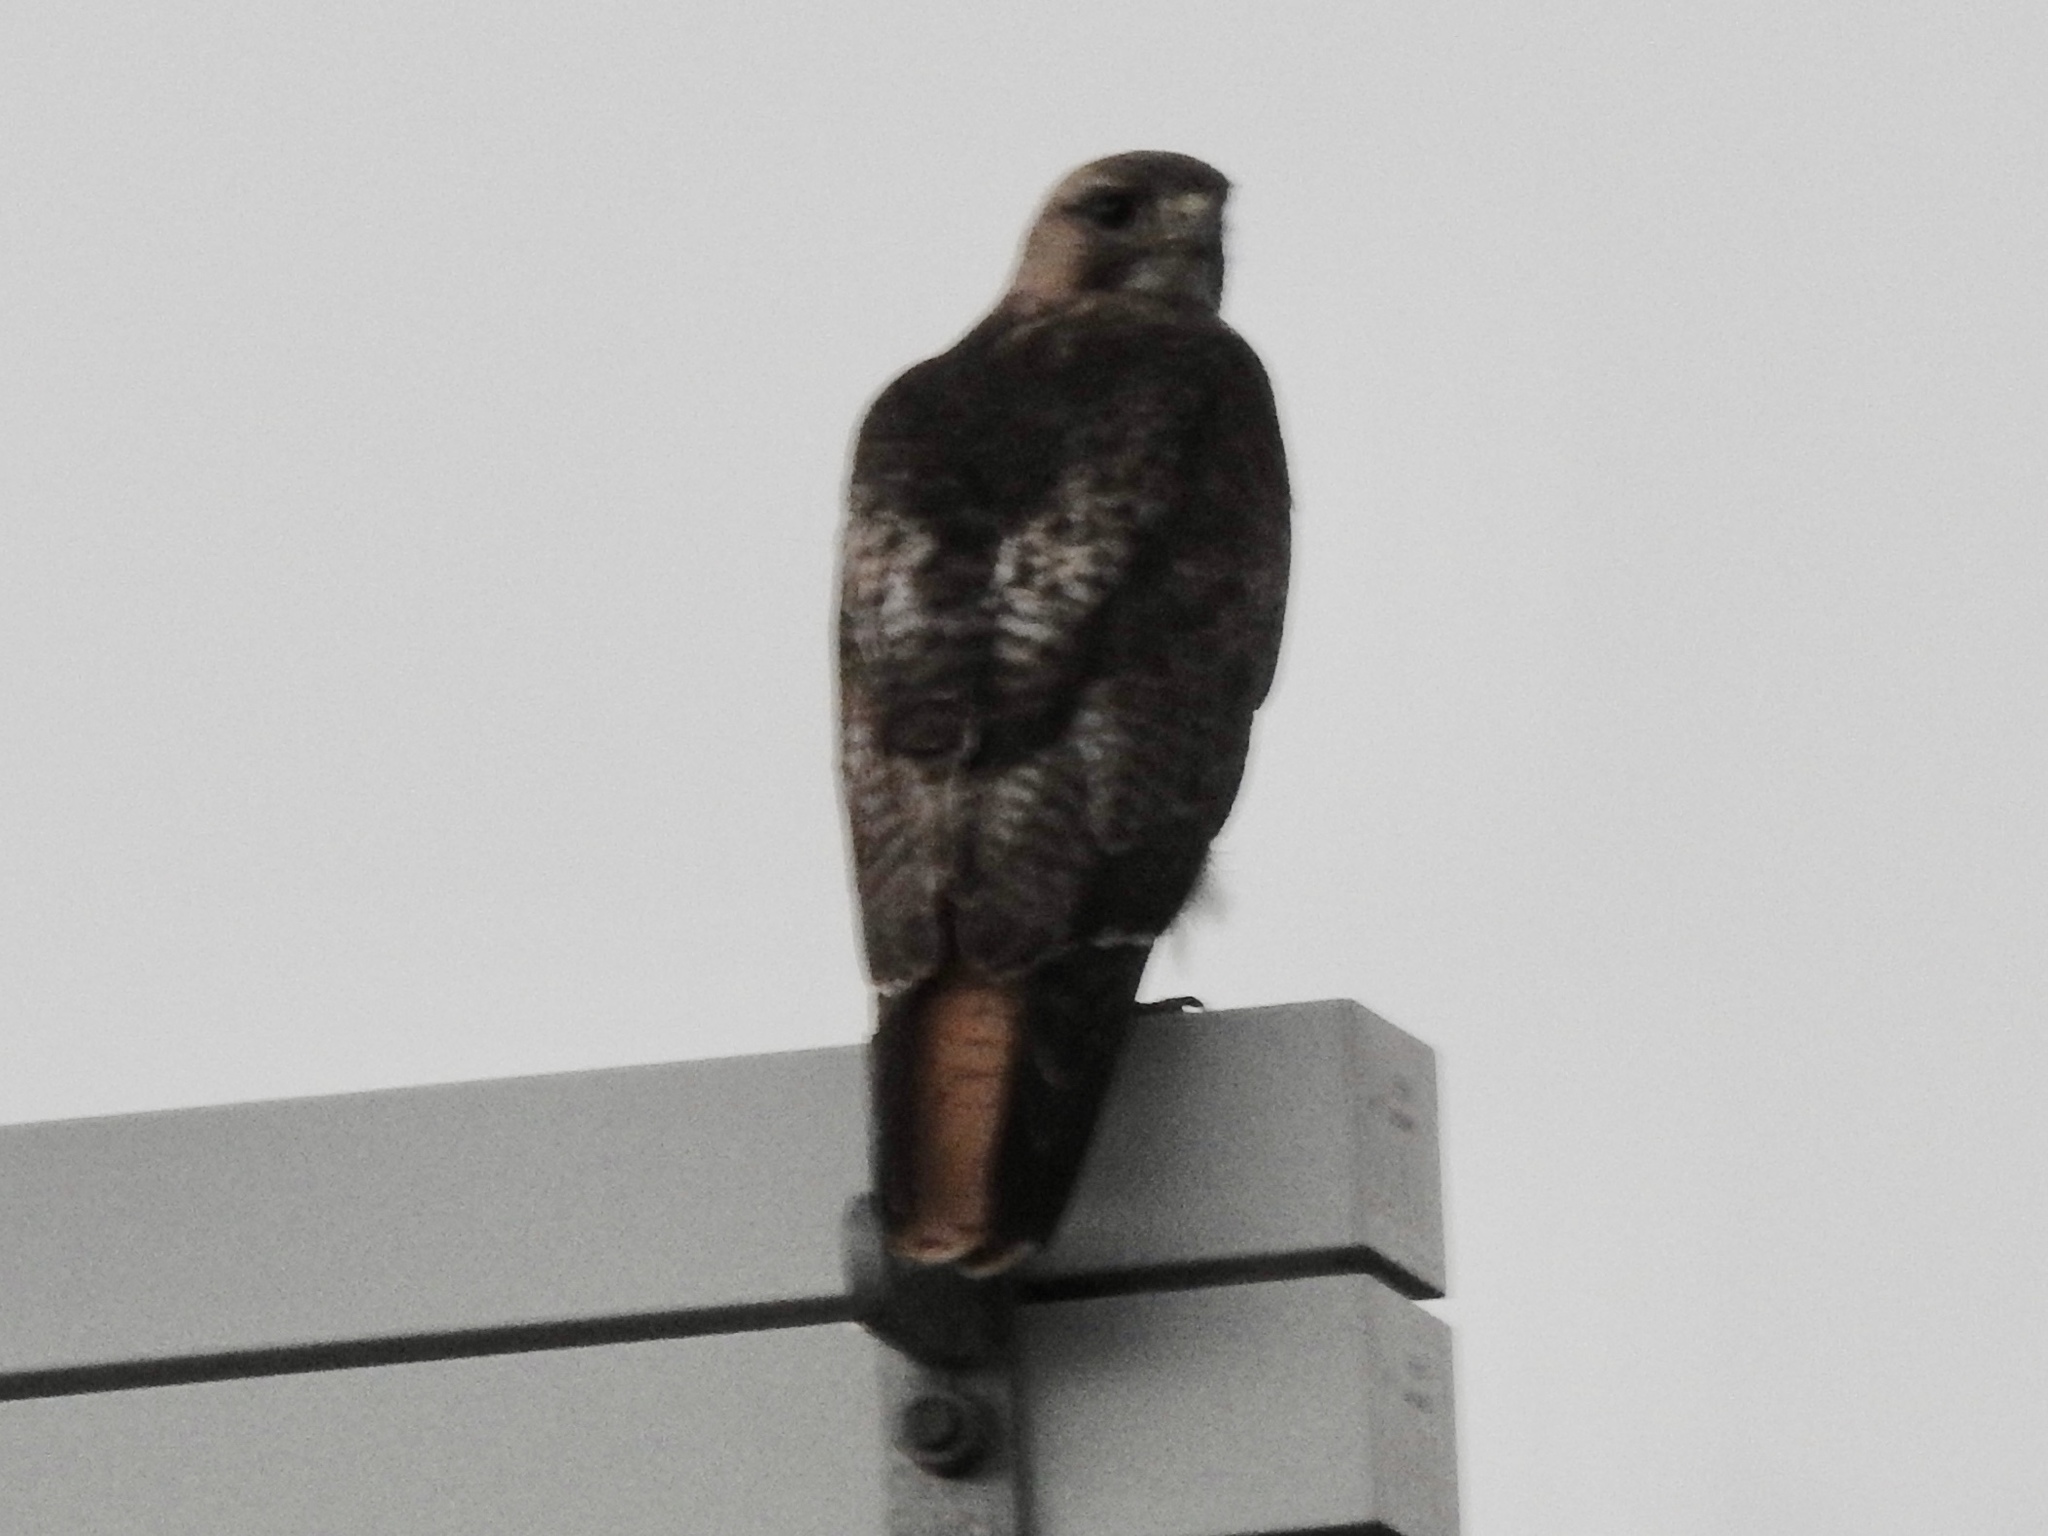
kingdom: Animalia
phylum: Chordata
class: Aves
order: Accipitriformes
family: Accipitridae
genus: Buteo
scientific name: Buteo jamaicensis
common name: Red-tailed hawk
